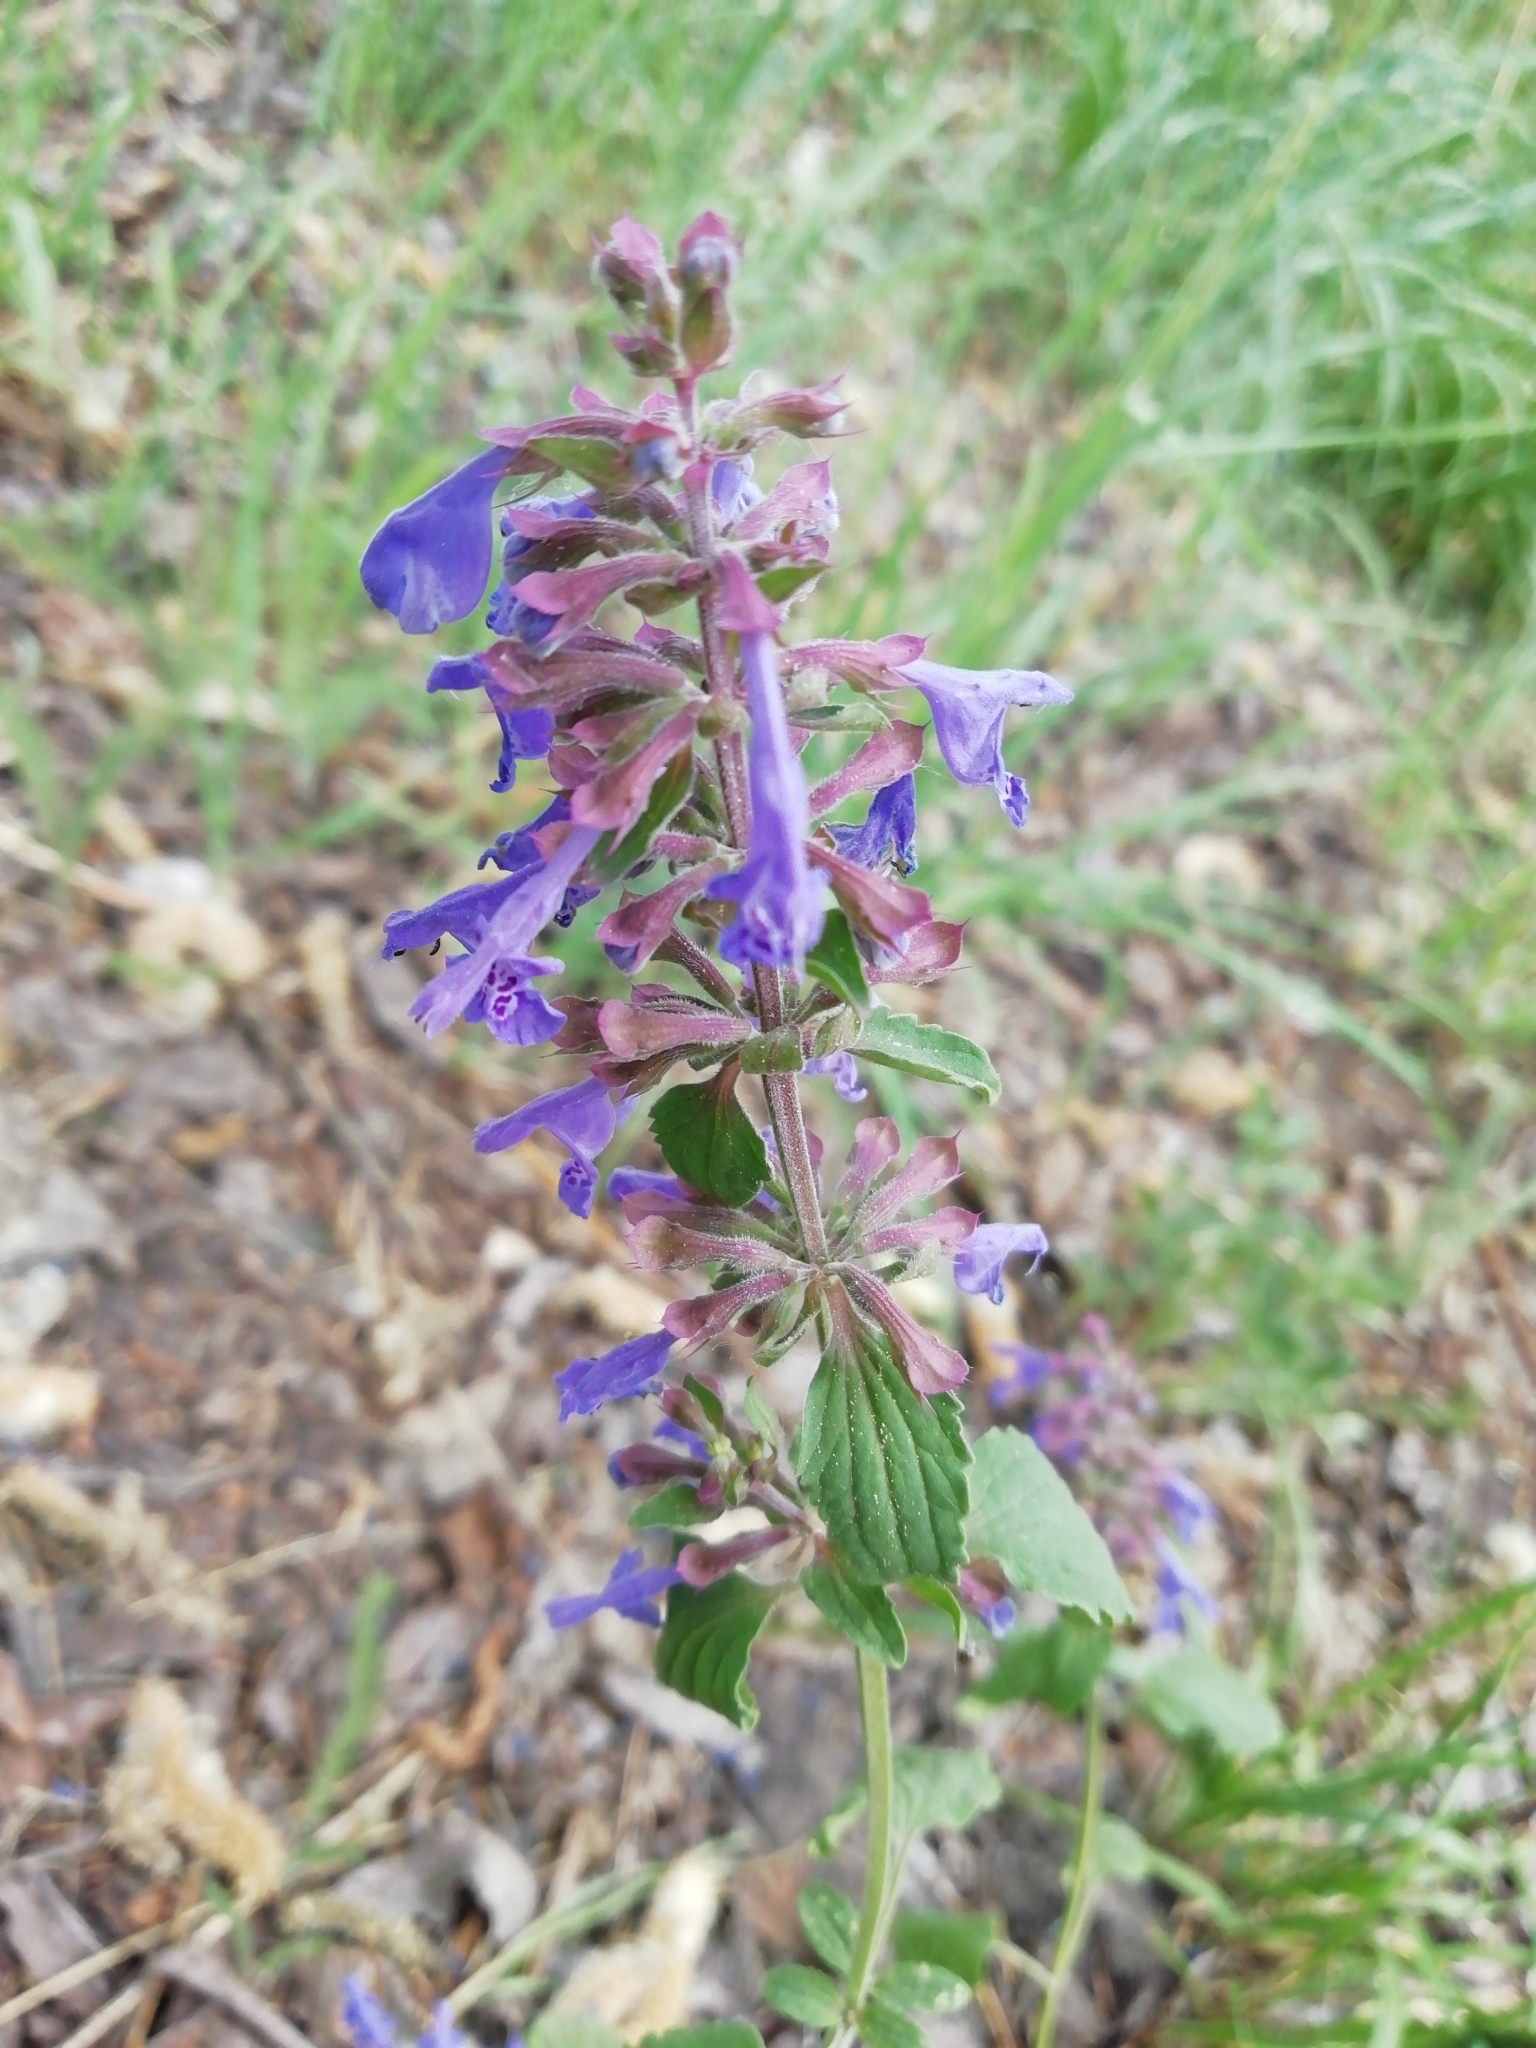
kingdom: Plantae
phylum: Tracheophyta
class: Magnoliopsida
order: Lamiales
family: Lamiaceae
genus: Dracocephalum
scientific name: Dracocephalum nutans
